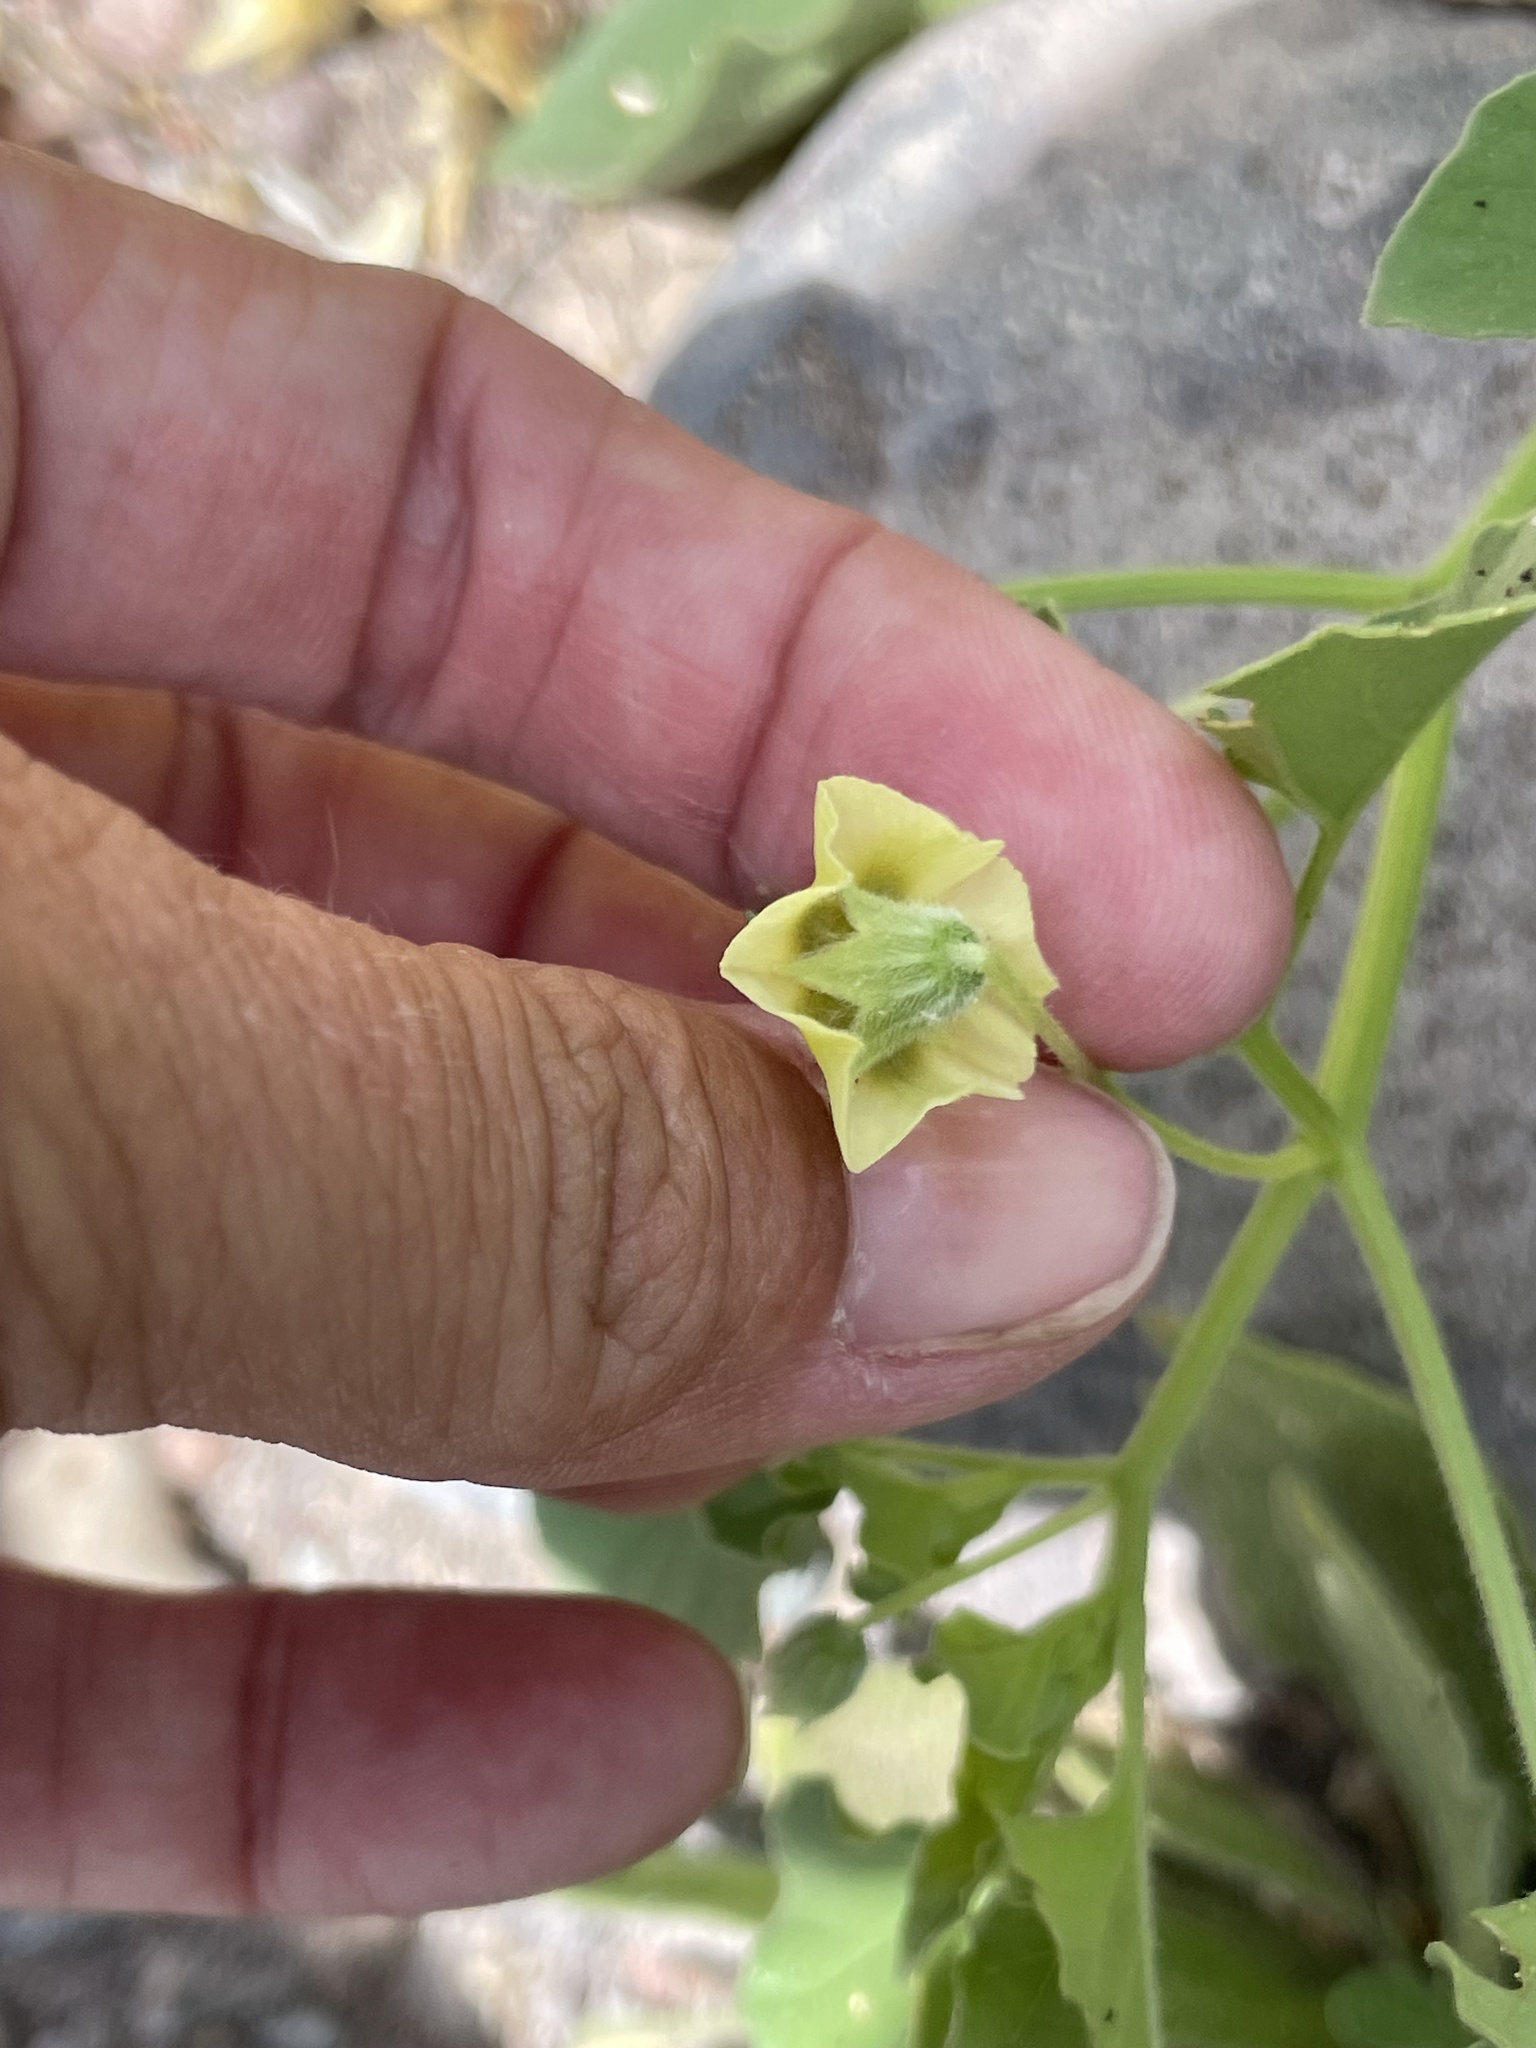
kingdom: Plantae
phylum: Tracheophyta
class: Magnoliopsida
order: Solanales
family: Solanaceae
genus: Physalis
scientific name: Physalis crassifolia
